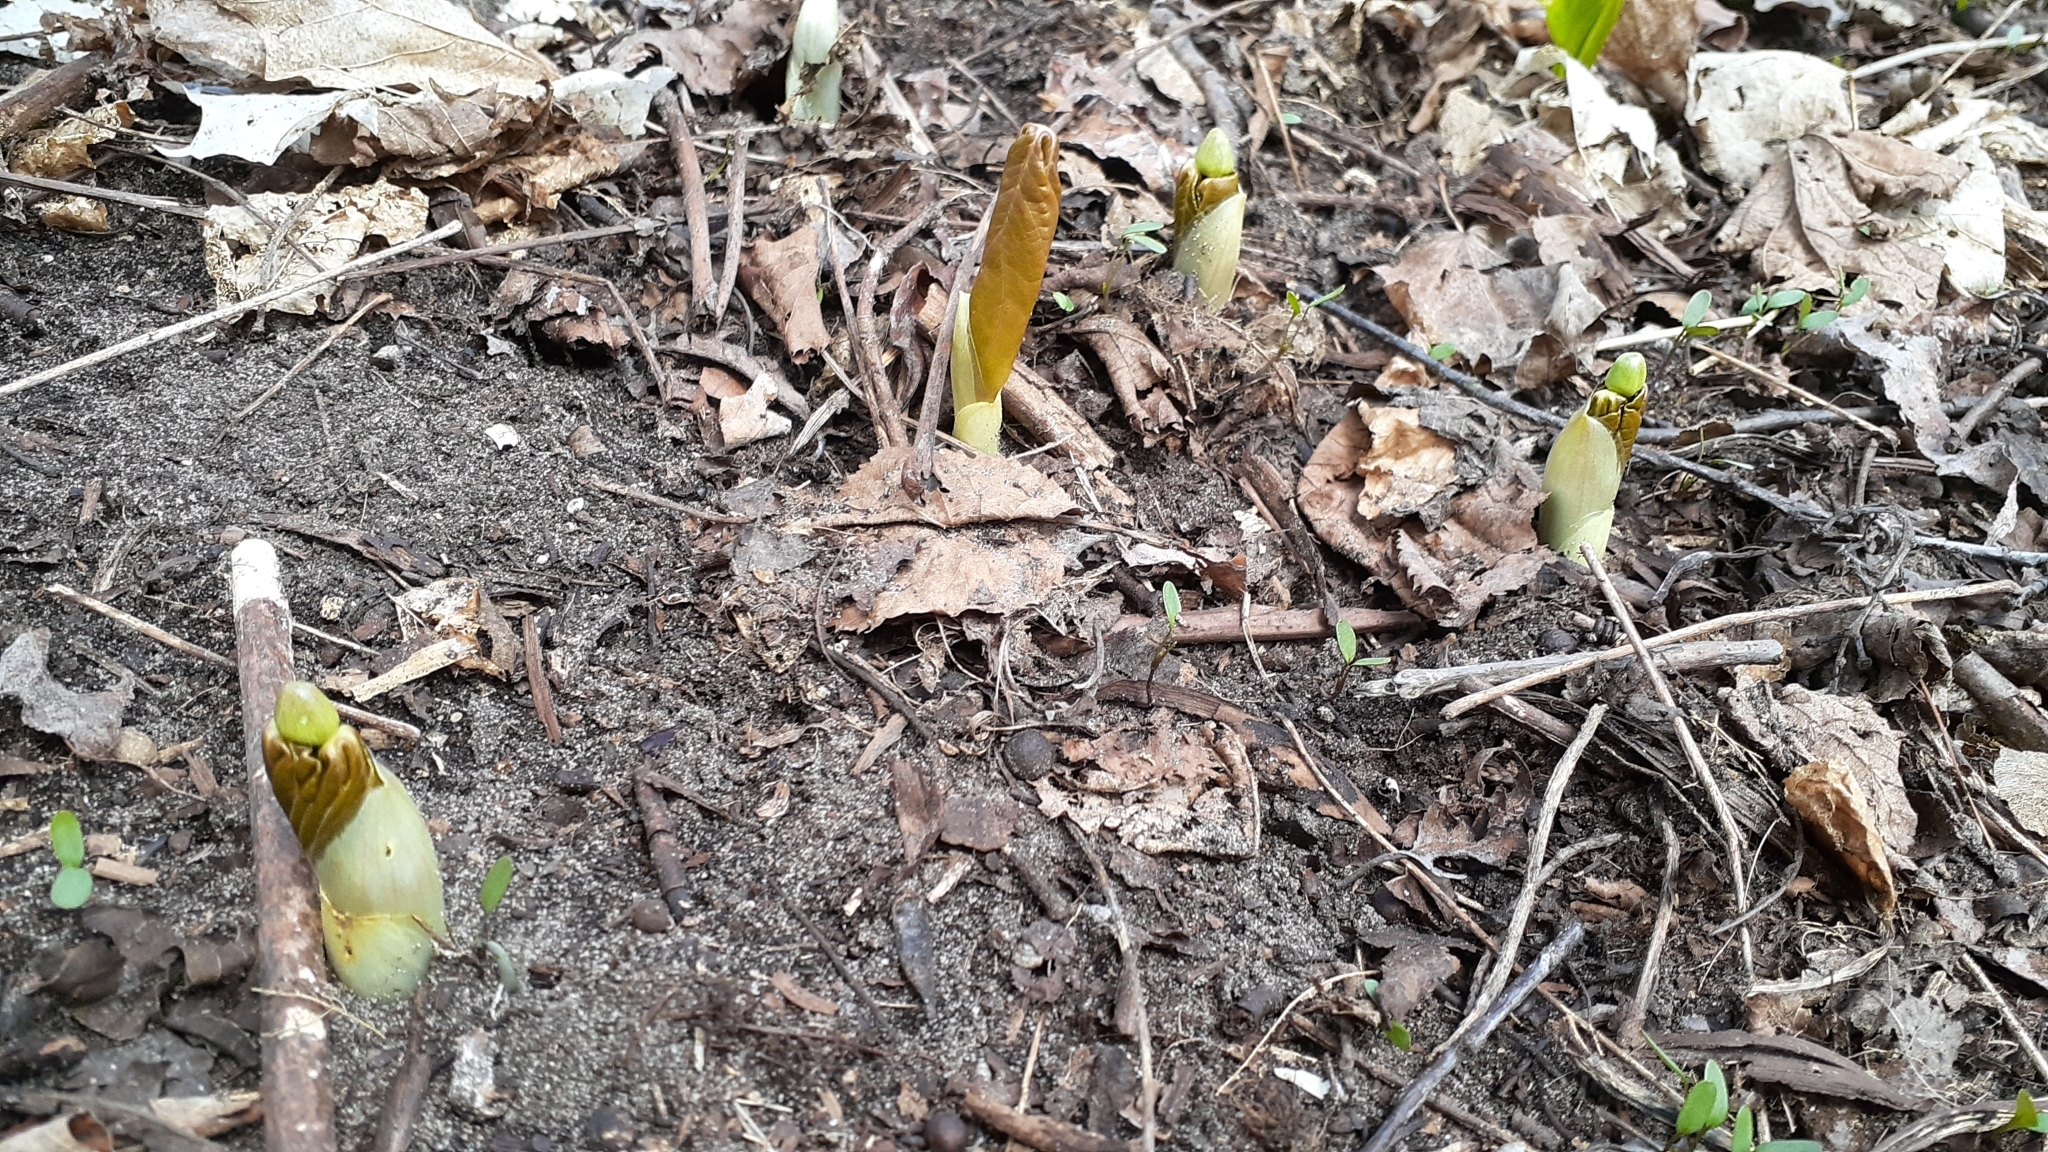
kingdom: Plantae
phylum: Tracheophyta
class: Magnoliopsida
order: Ranunculales
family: Berberidaceae
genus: Podophyllum
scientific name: Podophyllum peltatum
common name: Wild mandrake
